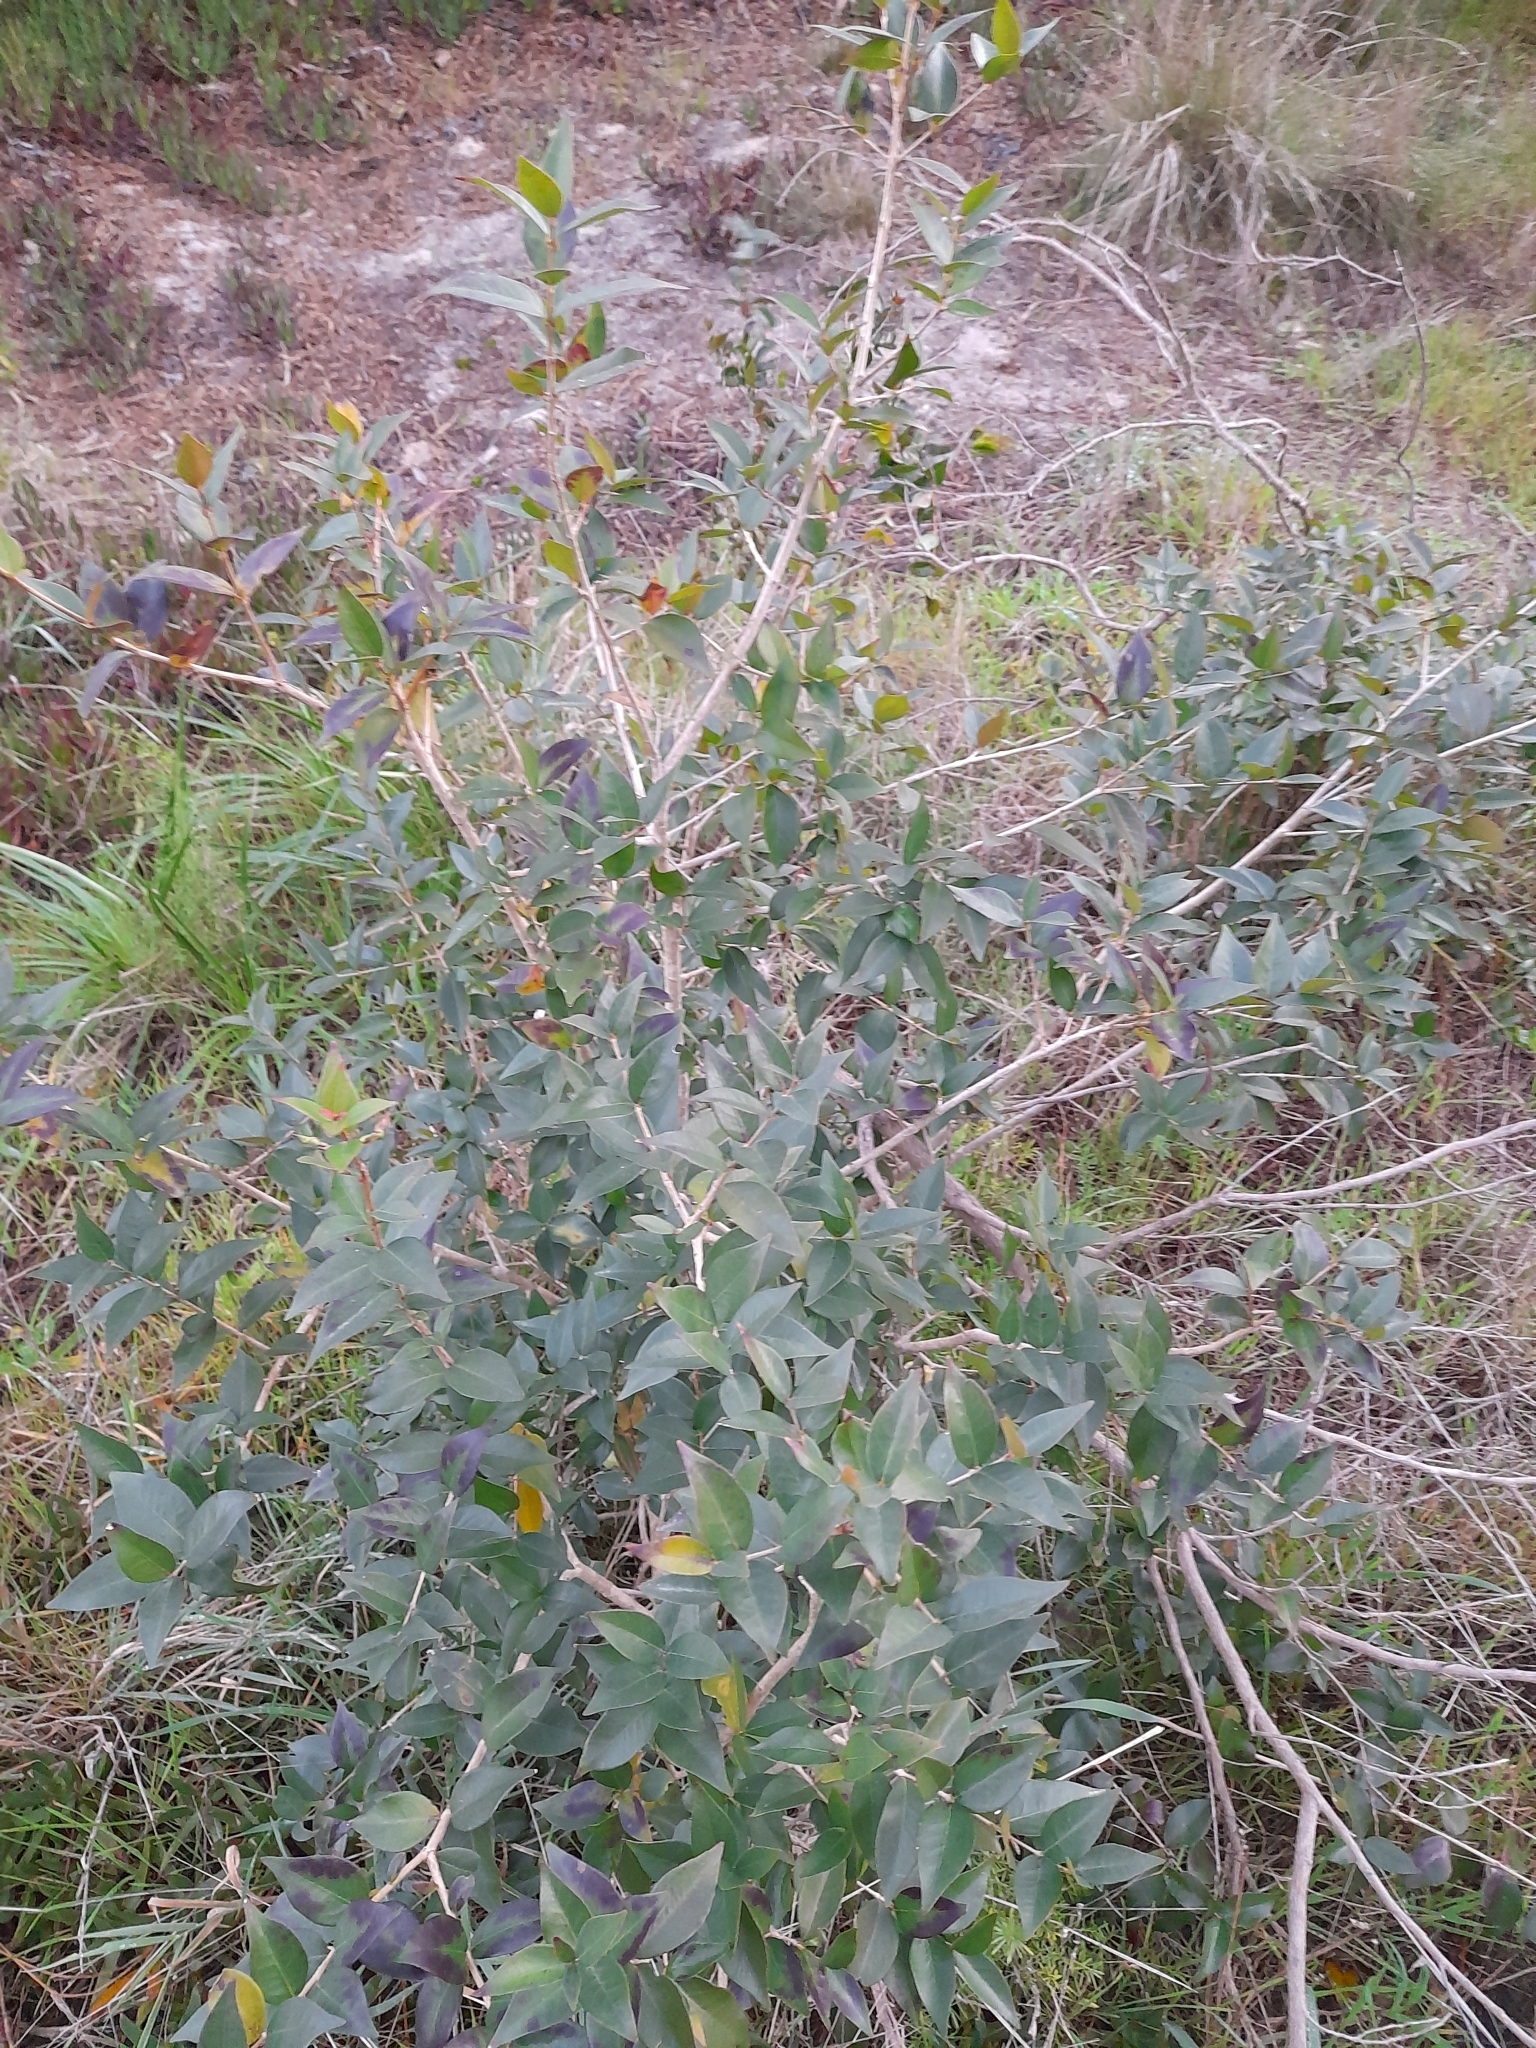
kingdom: Plantae
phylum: Tracheophyta
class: Magnoliopsida
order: Myrtales
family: Myrtaceae
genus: Eugenia
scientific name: Eugenia uniflora
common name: Surinam cherry
